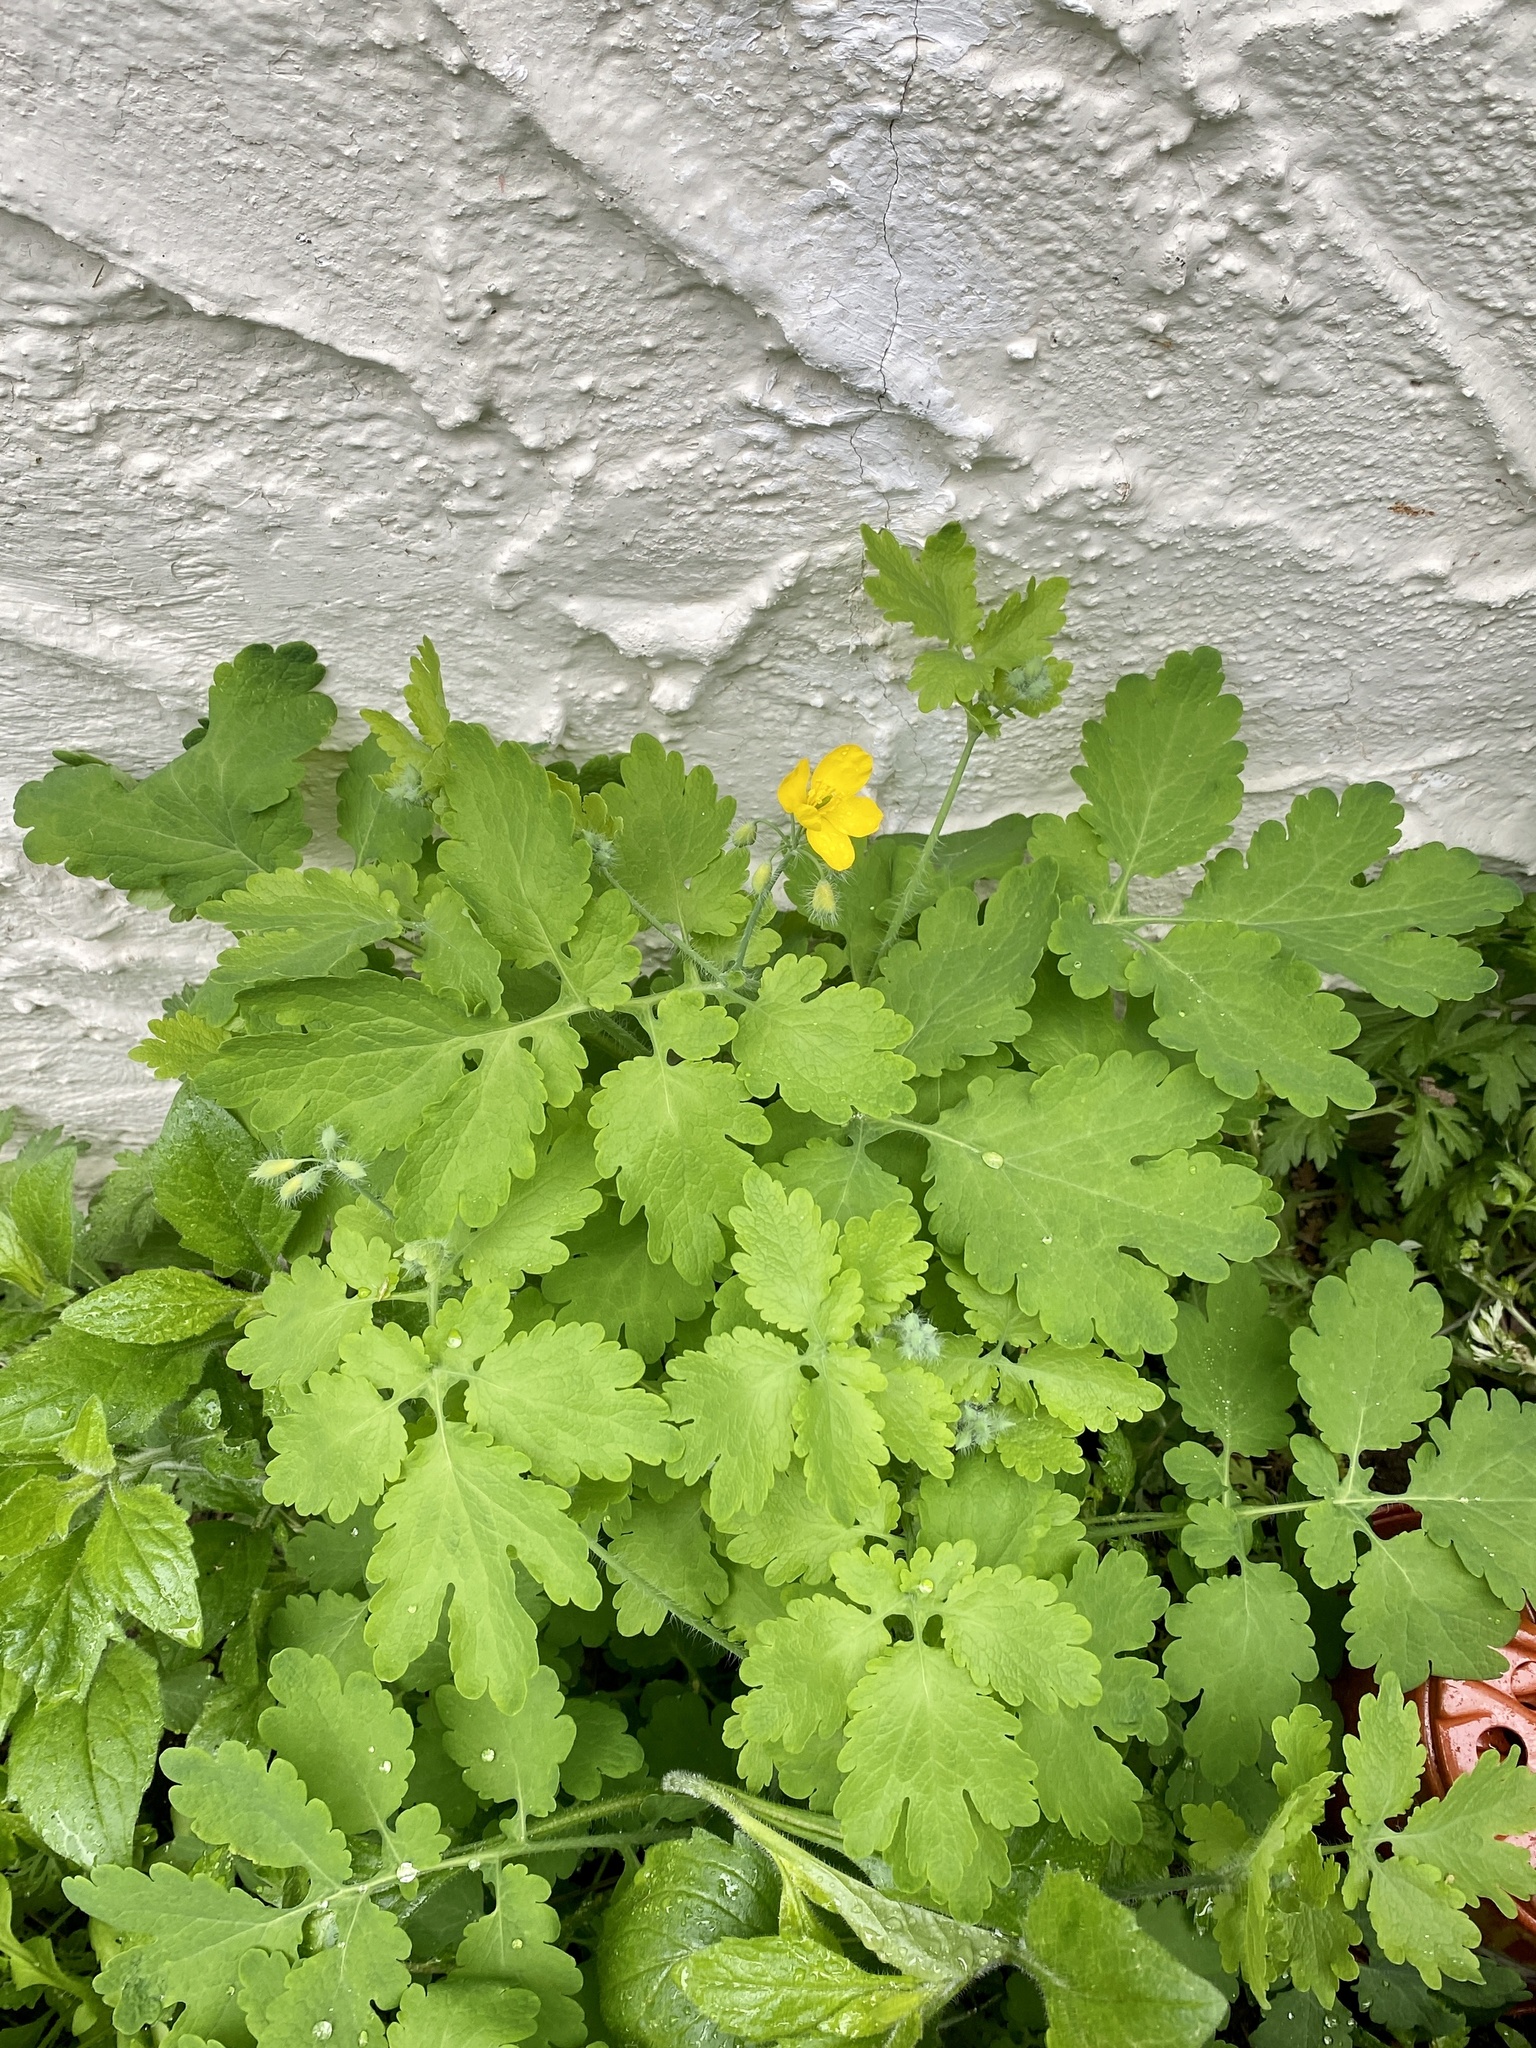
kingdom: Plantae
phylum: Tracheophyta
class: Magnoliopsida
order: Ranunculales
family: Papaveraceae
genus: Chelidonium
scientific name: Chelidonium majus
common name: Greater celandine
